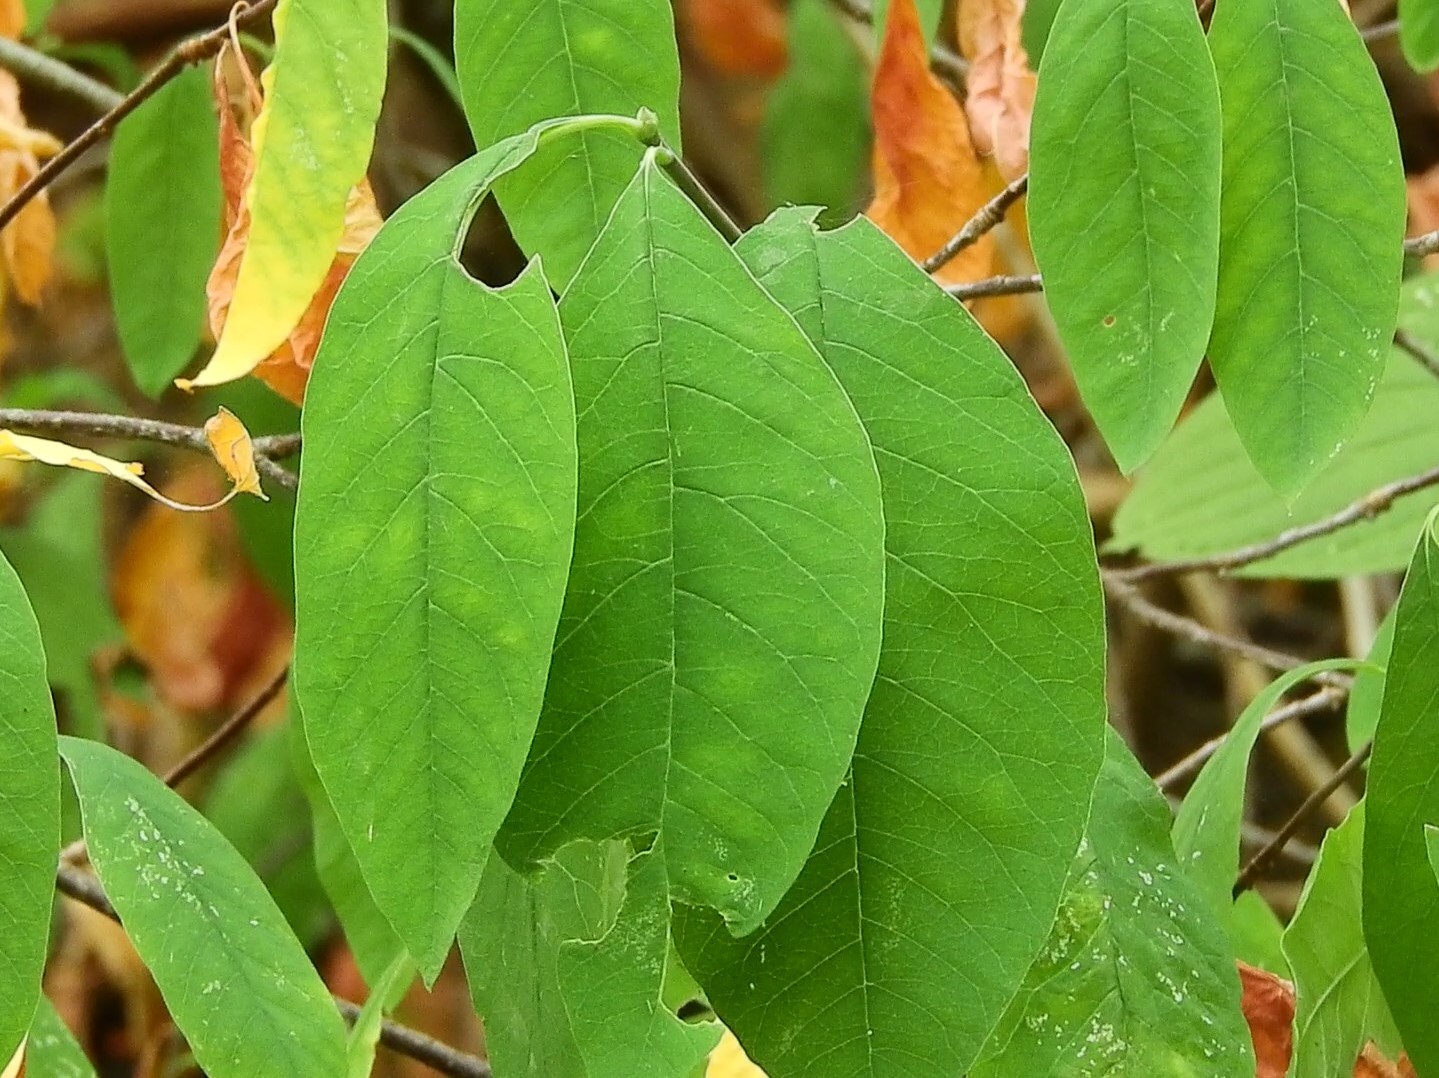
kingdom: Plantae
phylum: Tracheophyta
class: Magnoliopsida
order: Rosales
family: Rosaceae
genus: Oemleria
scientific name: Oemleria cerasiformis
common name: Osoberry
